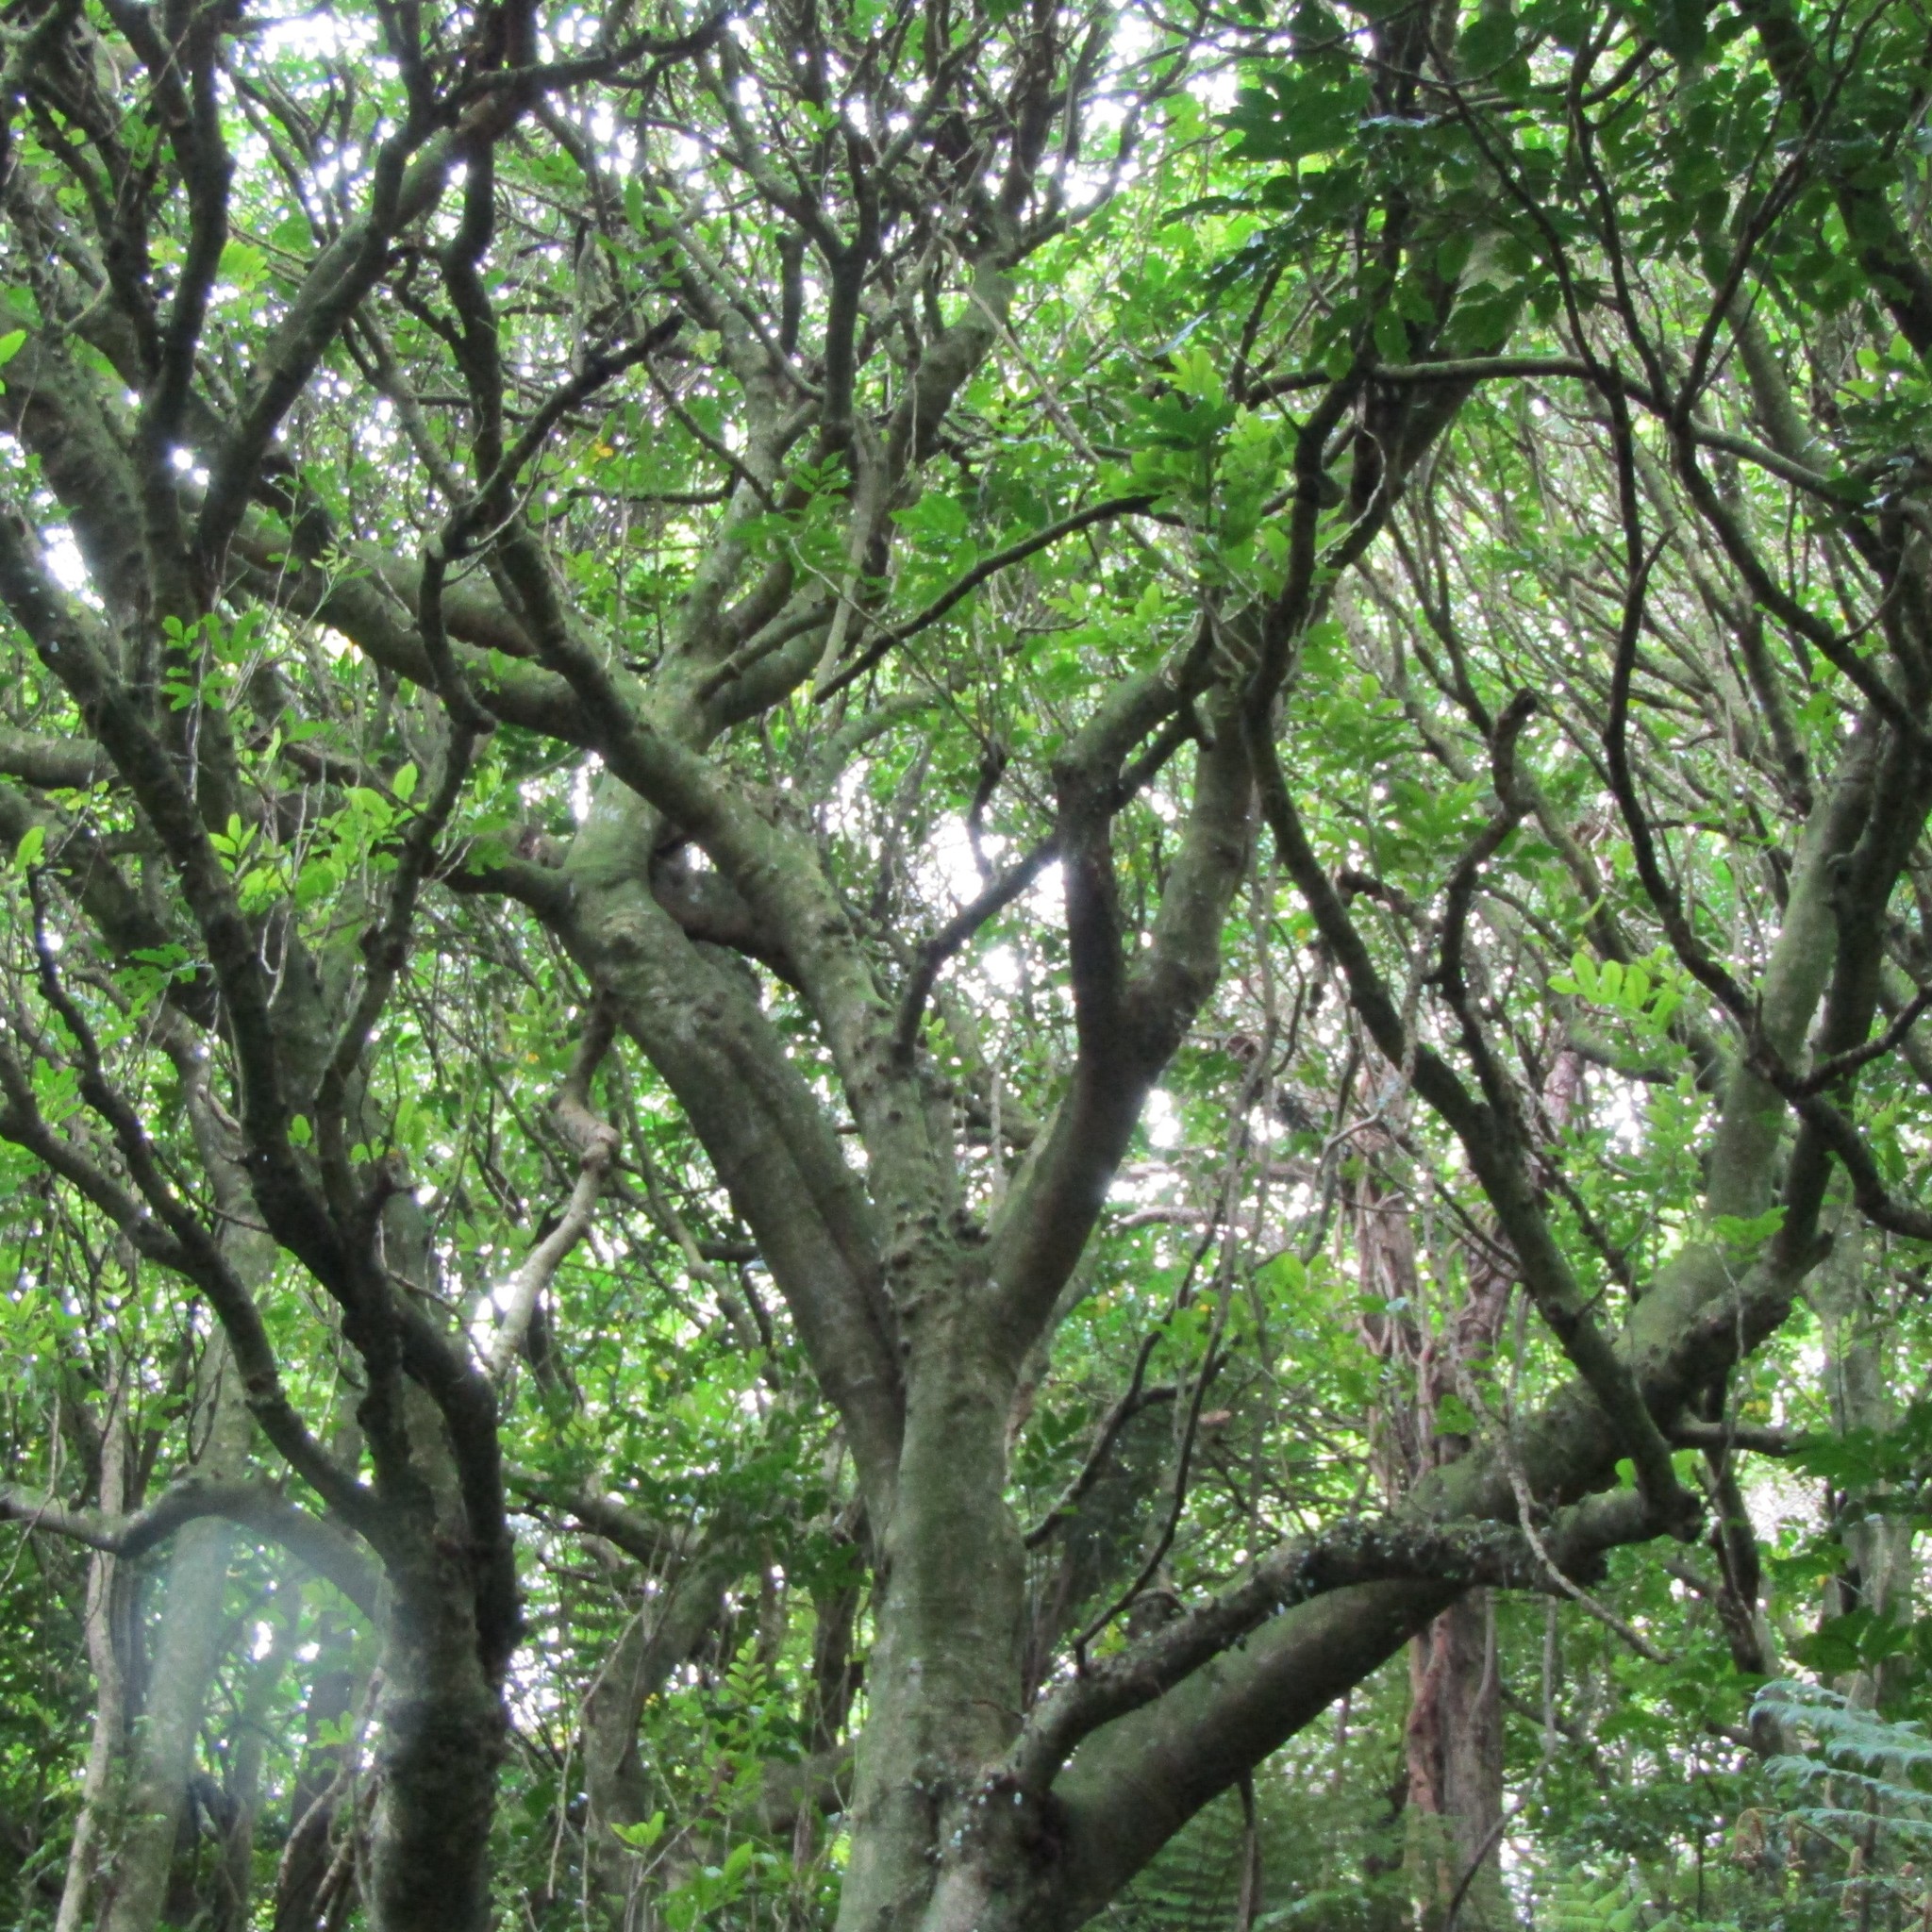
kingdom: Plantae
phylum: Tracheophyta
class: Magnoliopsida
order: Sapindales
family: Meliaceae
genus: Didymocheton
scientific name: Didymocheton spectabilis
